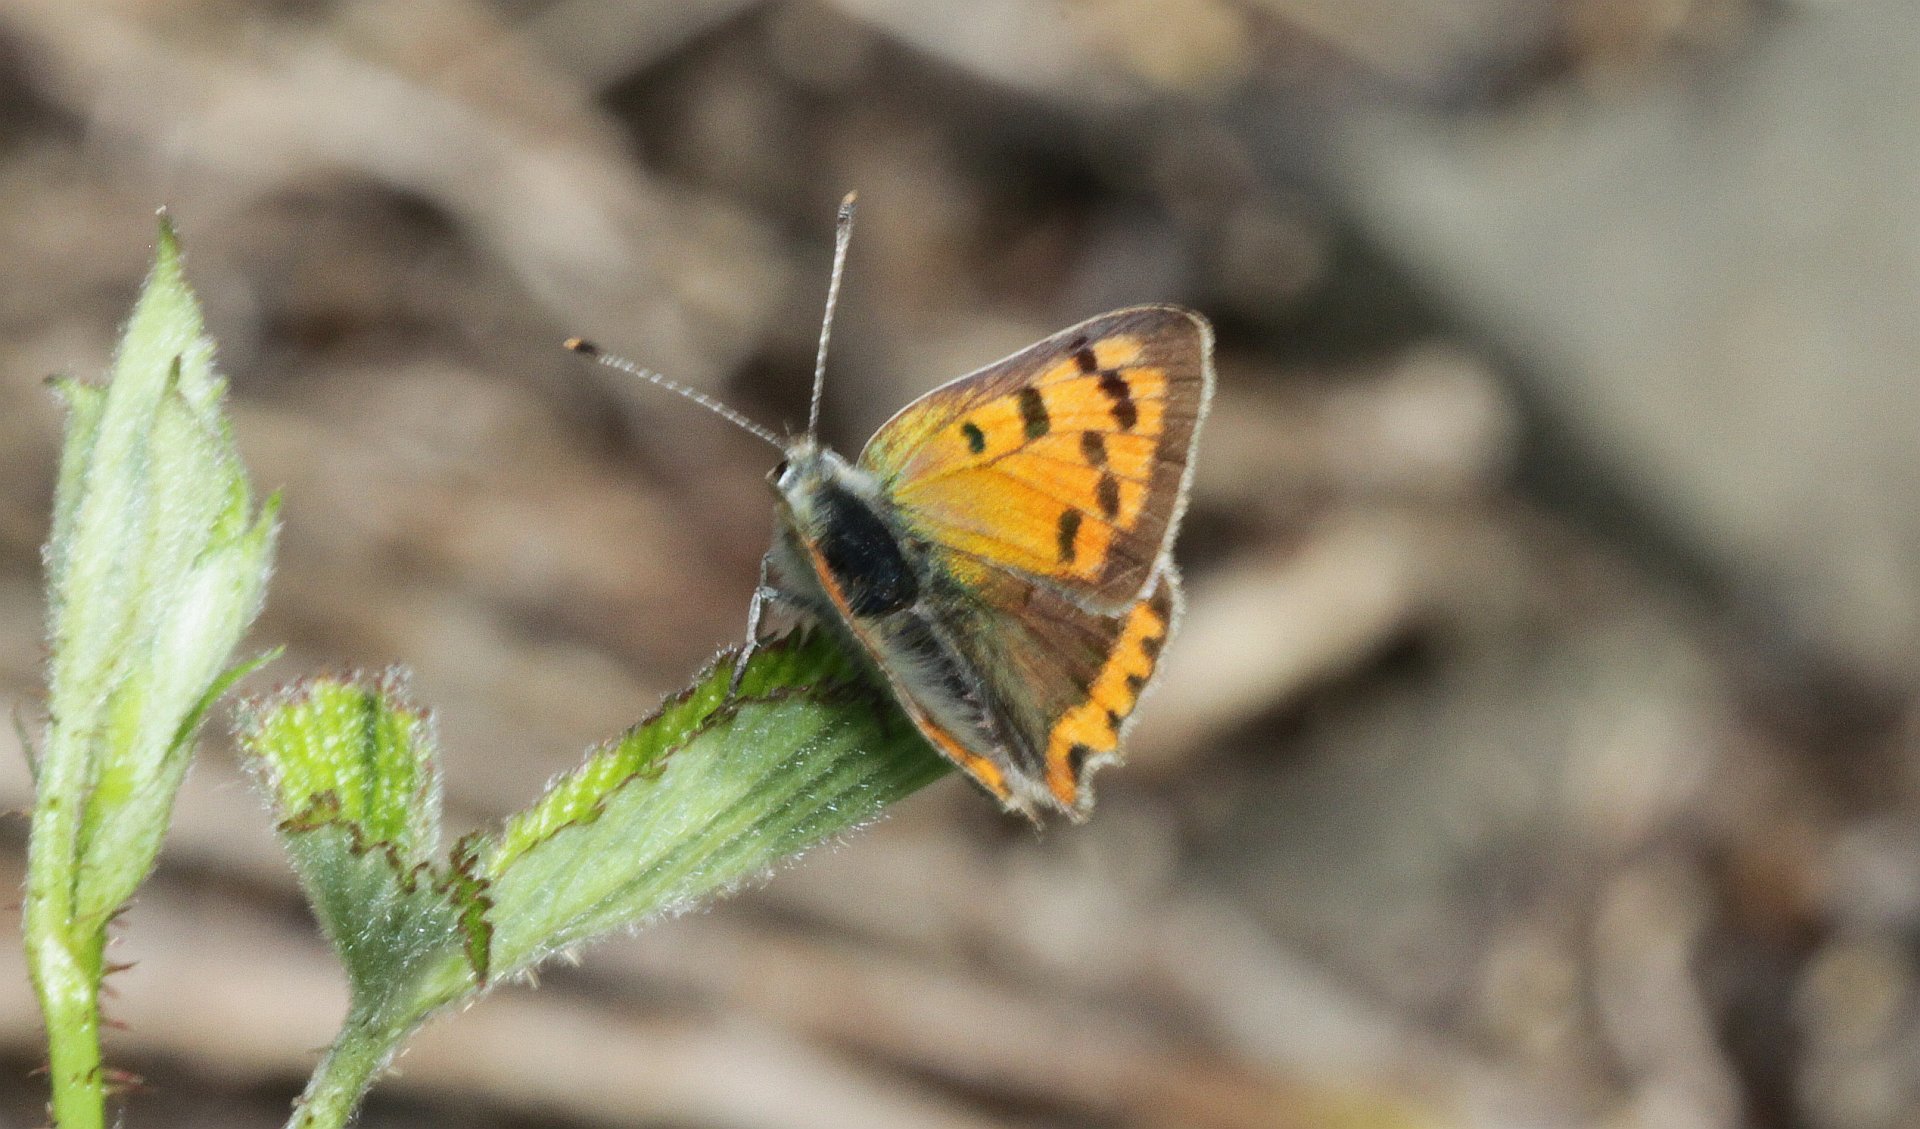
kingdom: Animalia
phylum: Arthropoda
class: Insecta
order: Lepidoptera
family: Lycaenidae
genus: Lycaena
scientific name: Lycaena phlaeas
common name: Small copper
